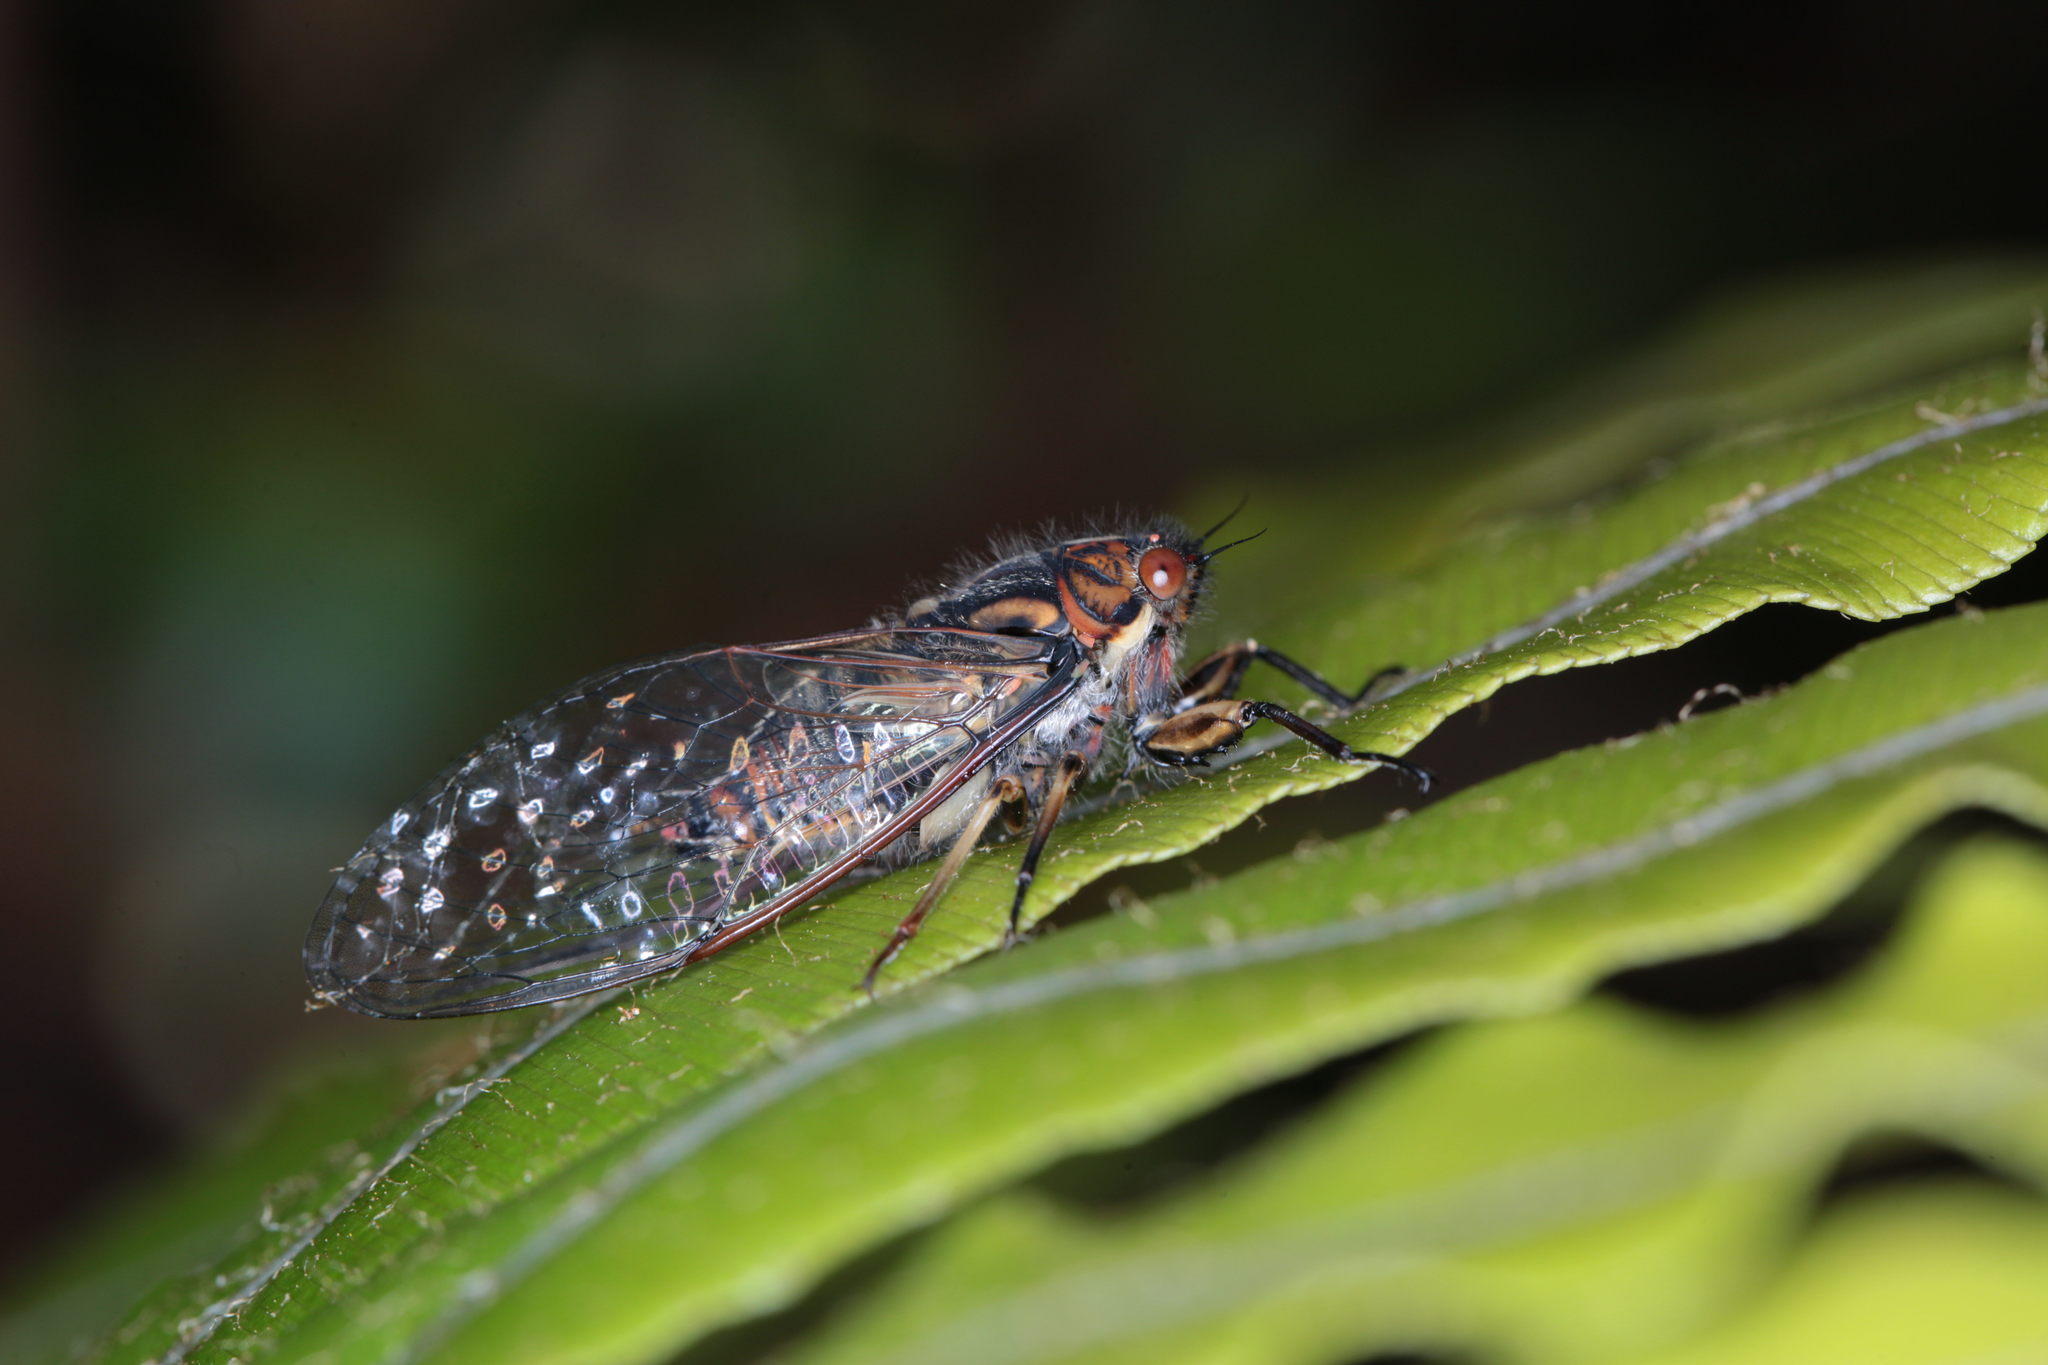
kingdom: Animalia
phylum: Arthropoda
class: Insecta
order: Hemiptera
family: Cicadidae
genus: Kikihia
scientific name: Kikihia longula
